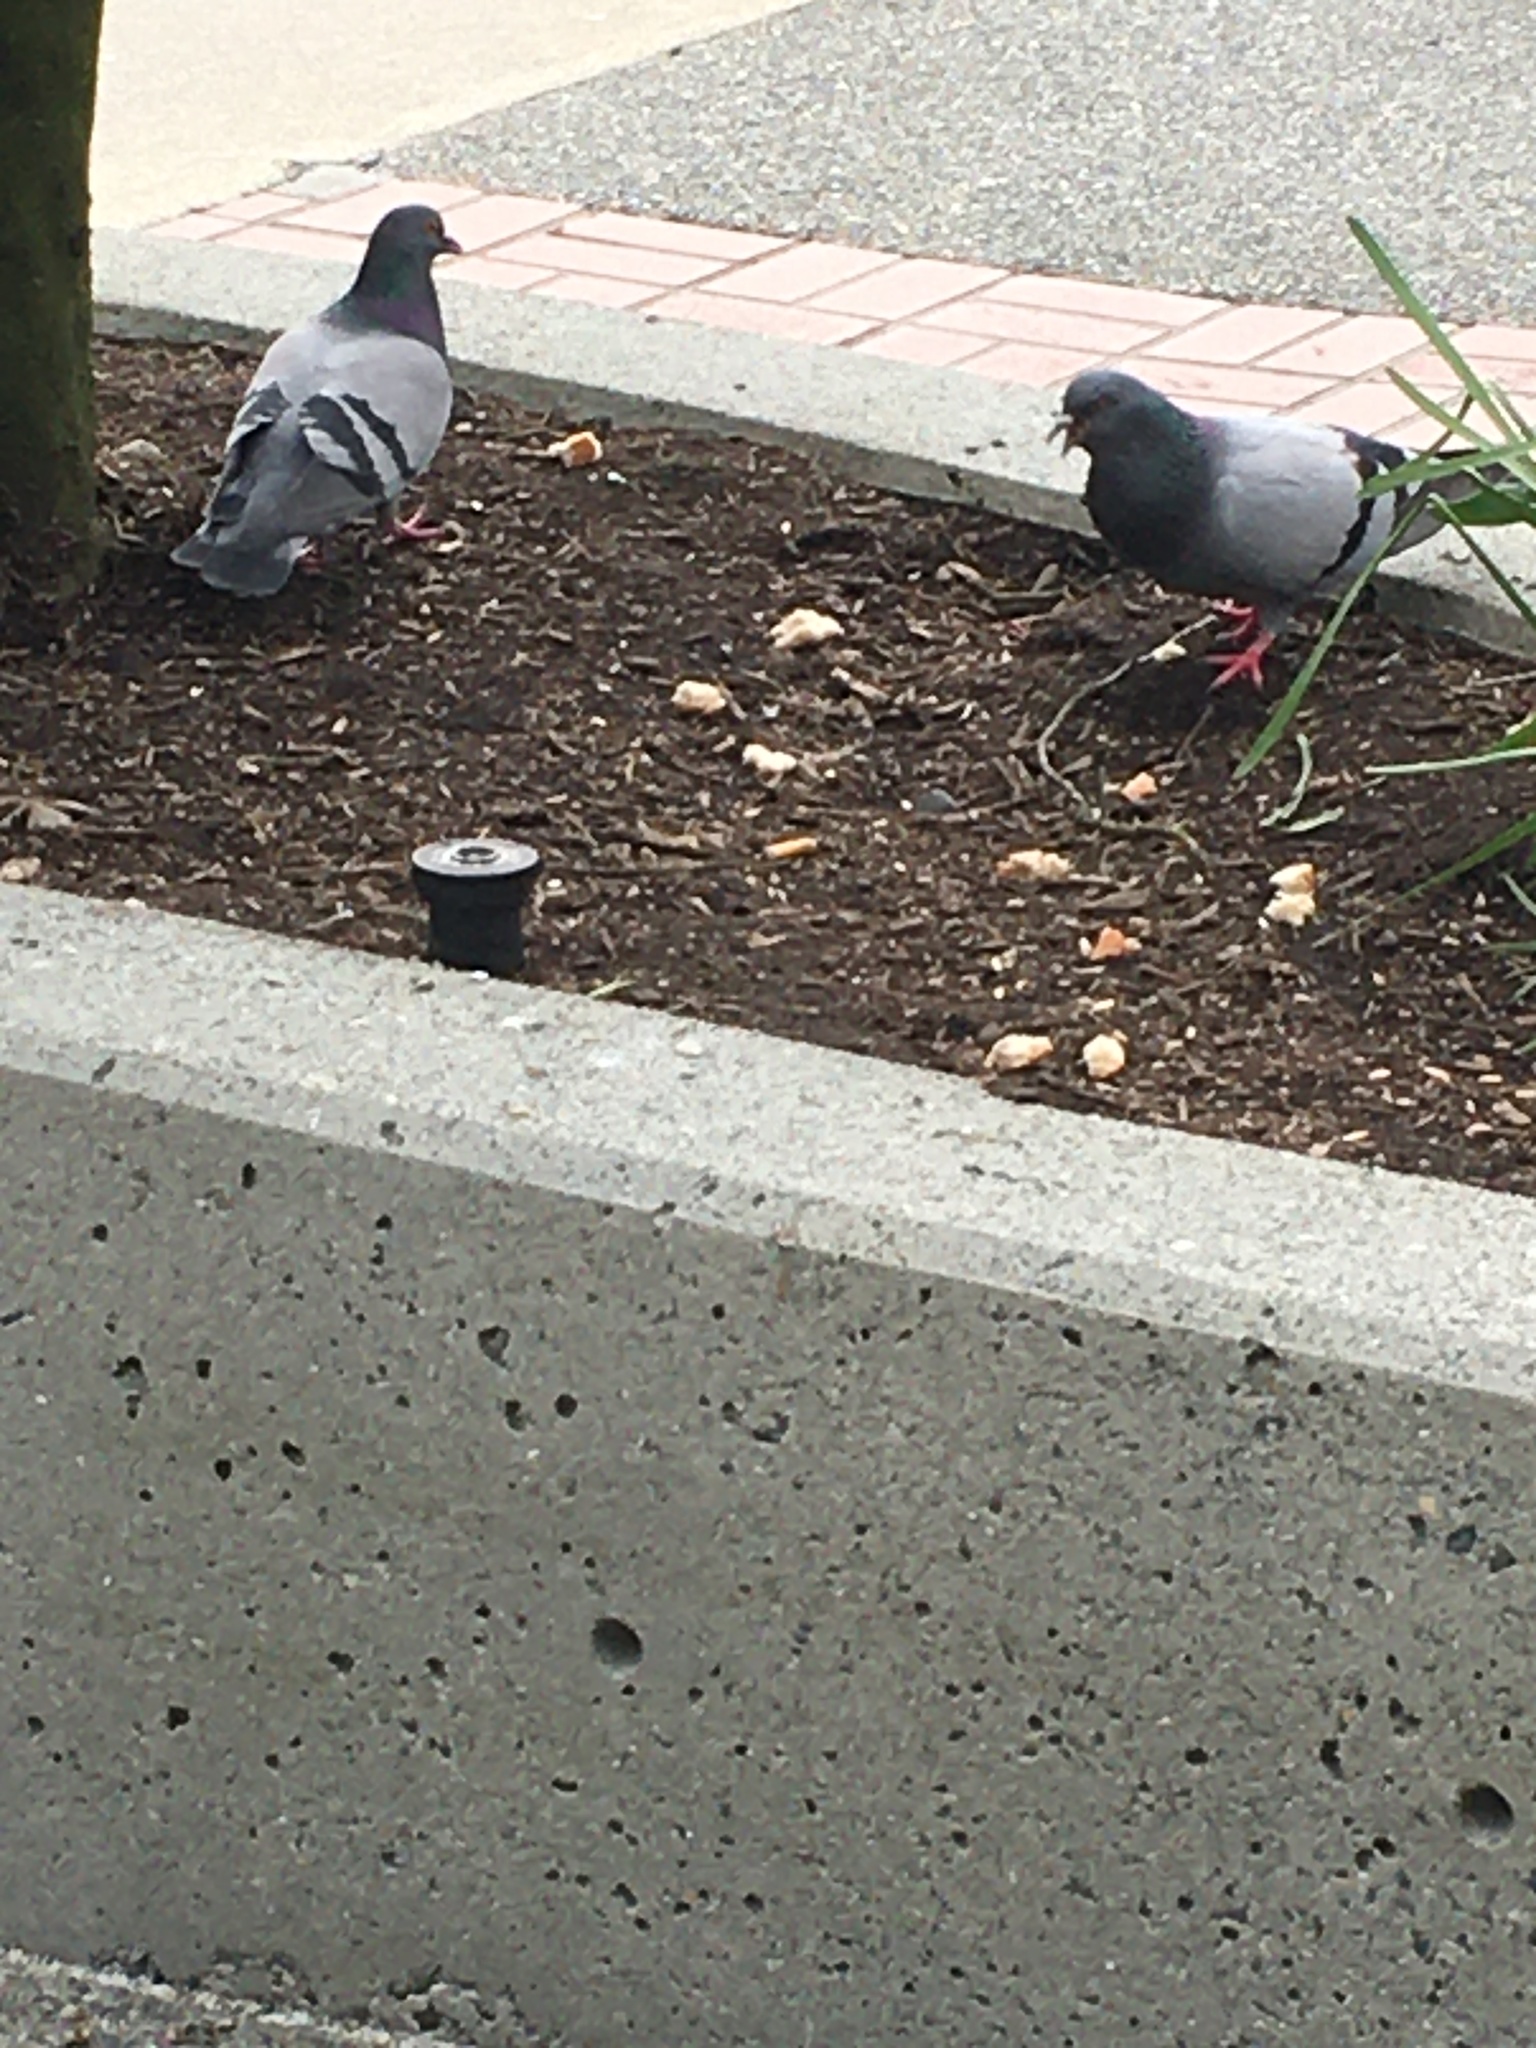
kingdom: Animalia
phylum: Chordata
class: Aves
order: Columbiformes
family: Columbidae
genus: Columba
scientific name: Columba livia
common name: Rock pigeon
